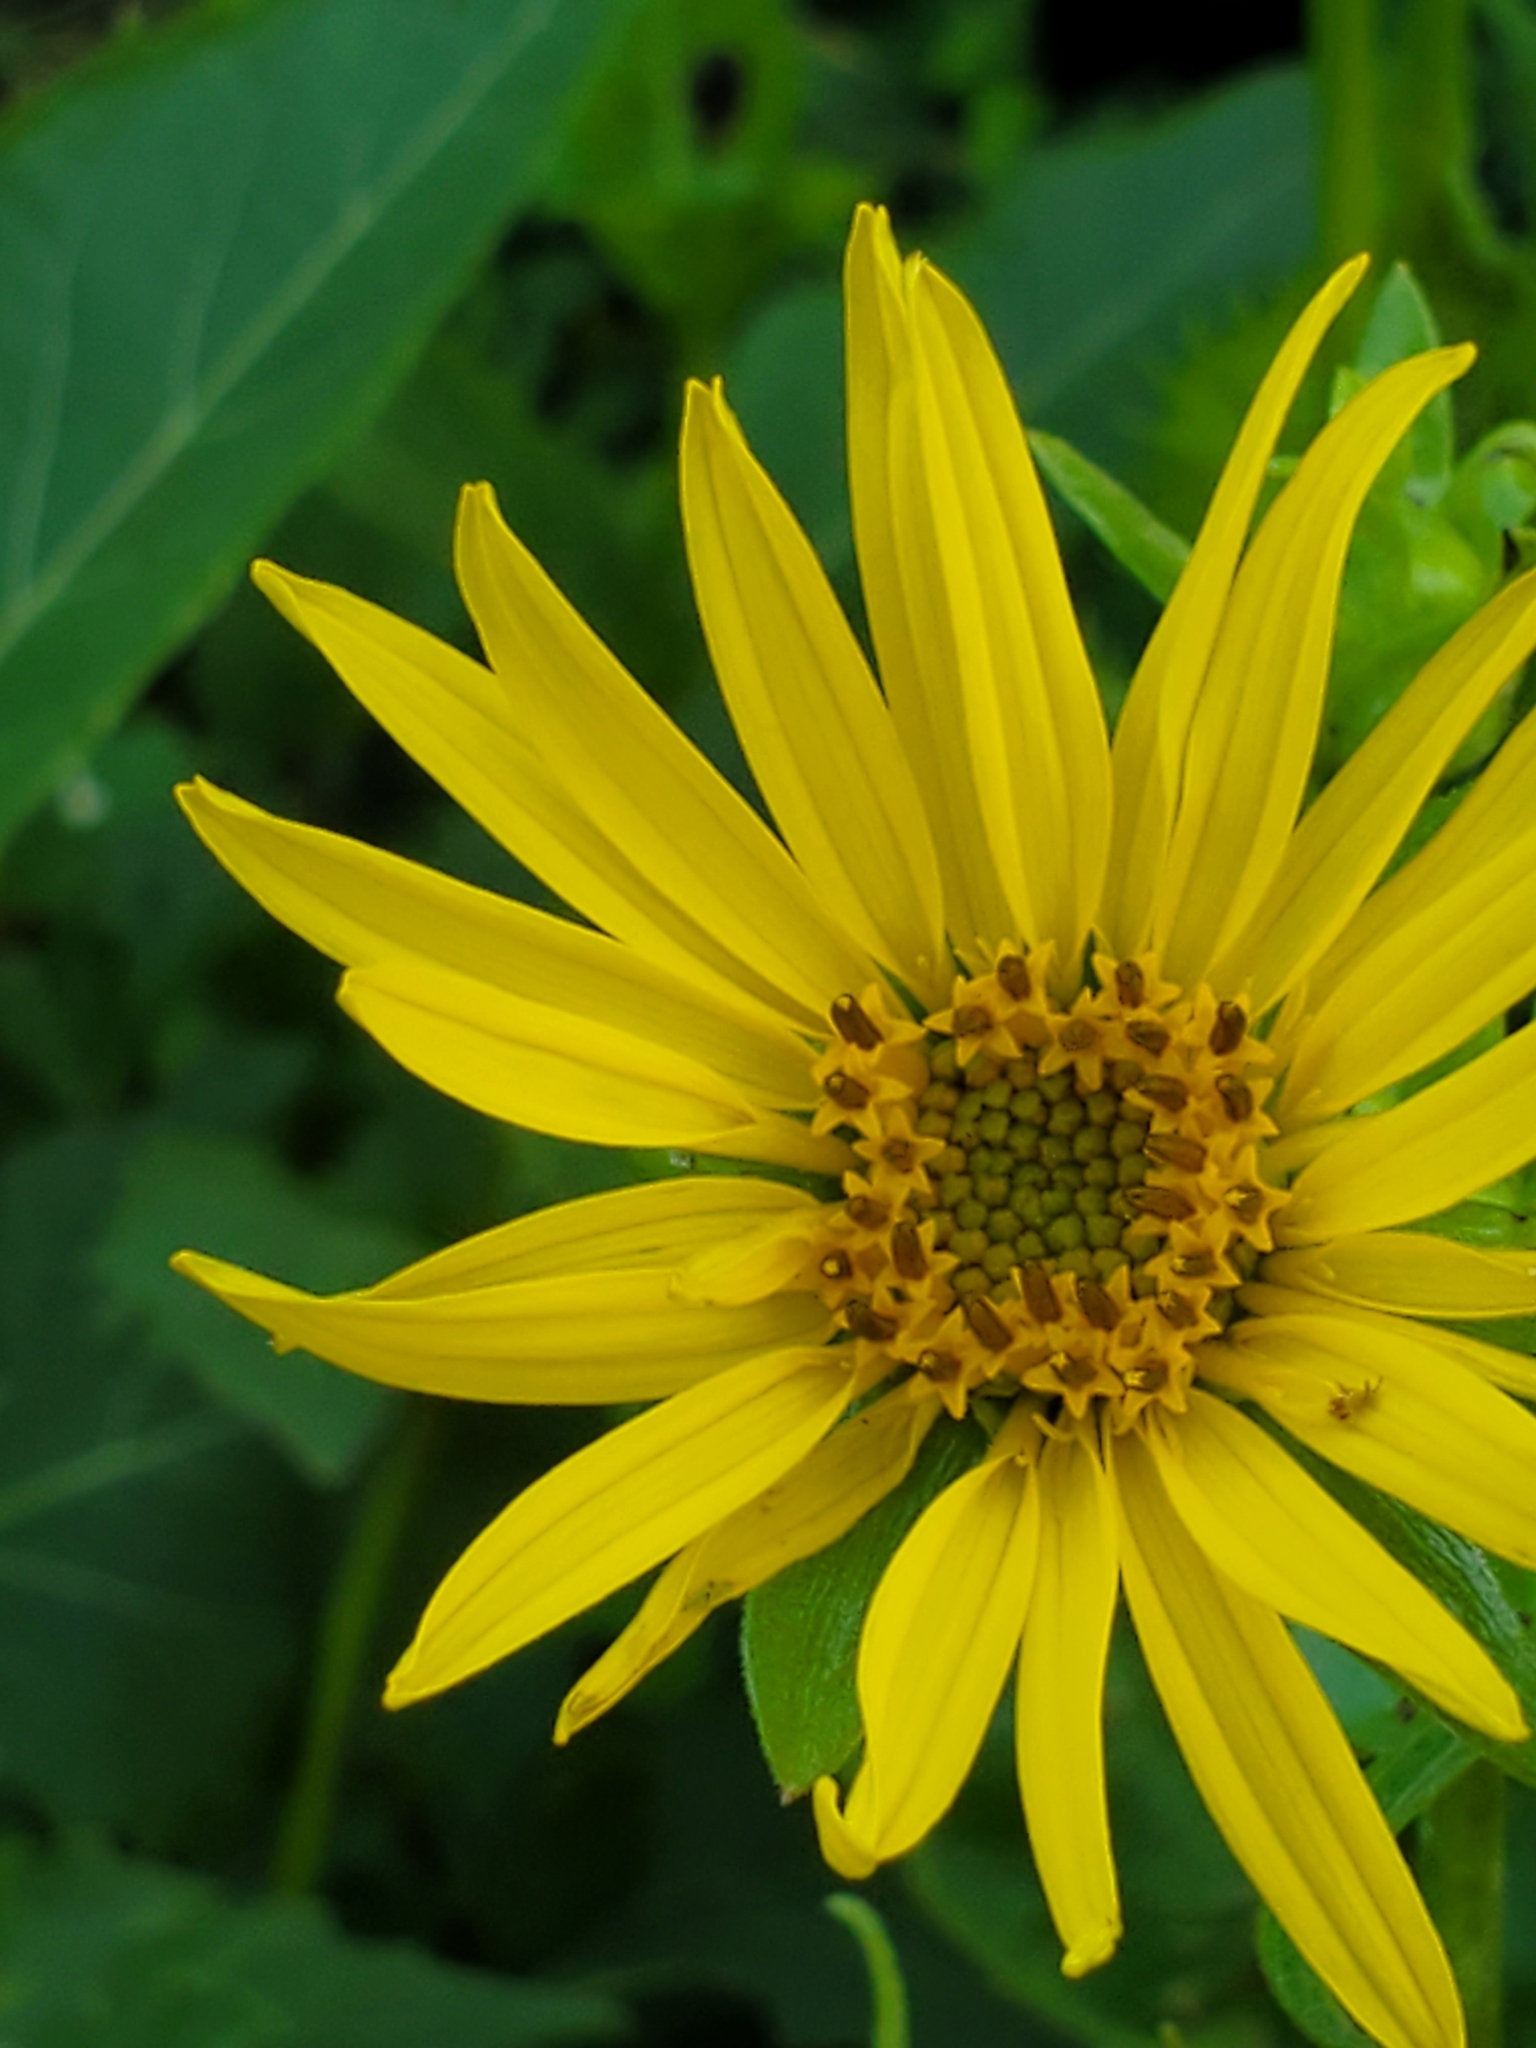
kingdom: Plantae
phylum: Tracheophyta
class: Magnoliopsida
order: Asterales
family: Asteraceae
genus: Silphium
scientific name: Silphium perfoliatum
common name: Cup-plant
